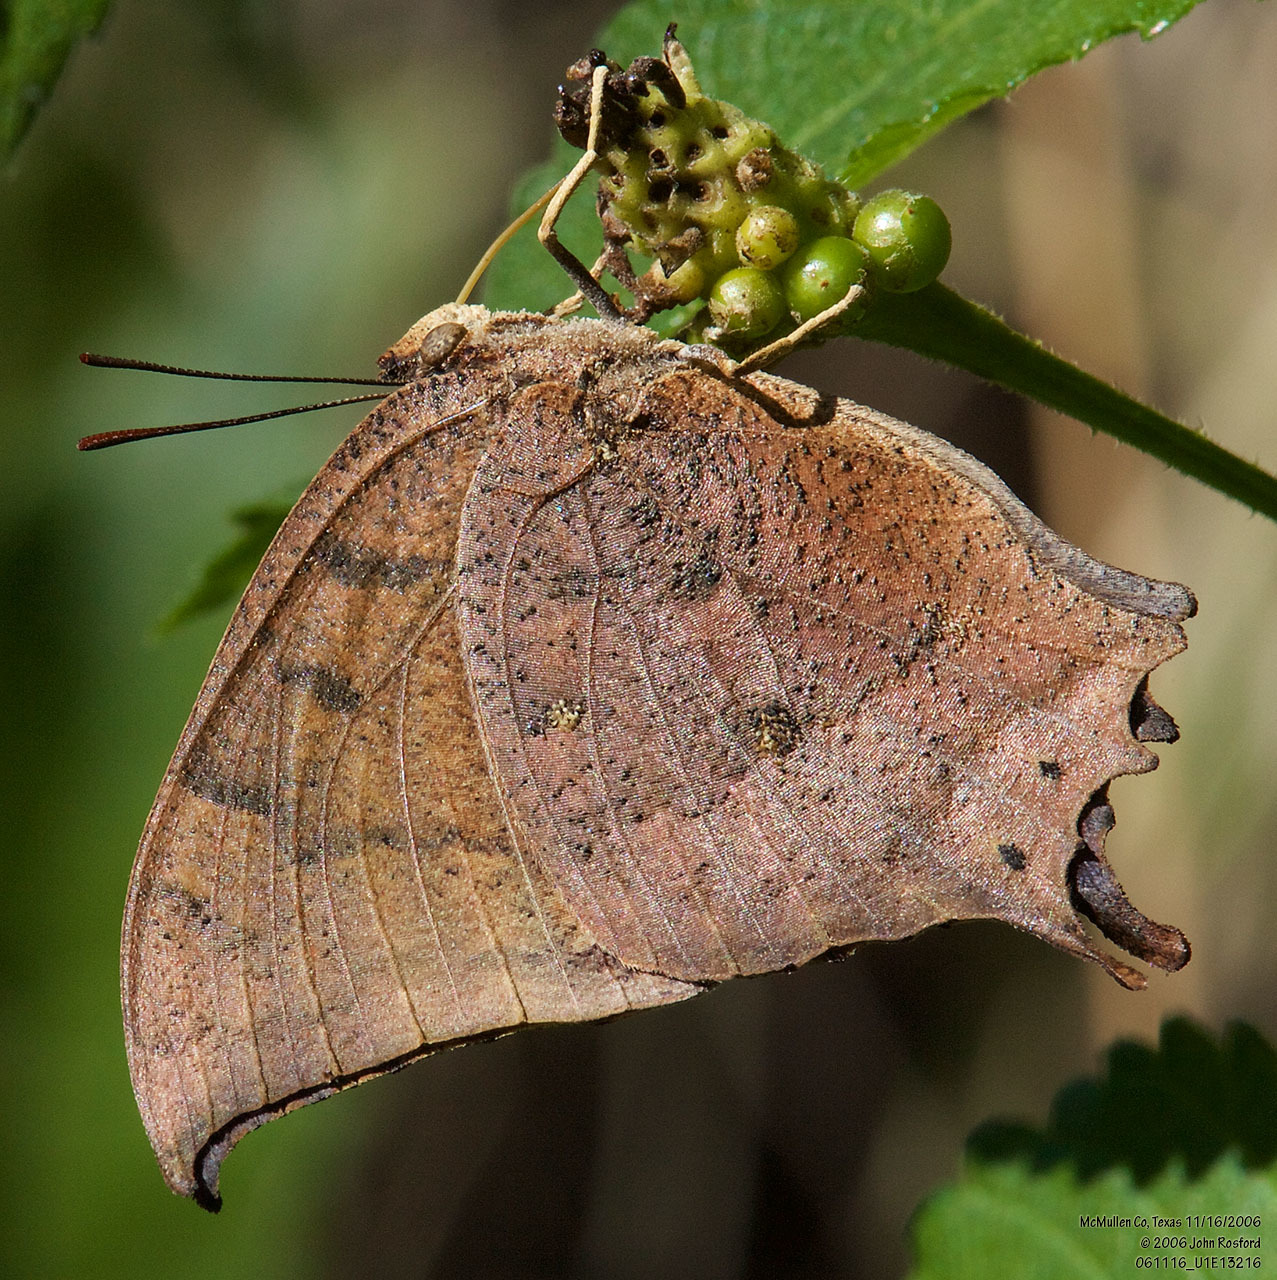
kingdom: Animalia
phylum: Arthropoda
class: Insecta
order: Lepidoptera
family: Nymphalidae
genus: Anaea
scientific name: Anaea aidea
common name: Tropical leafwing
